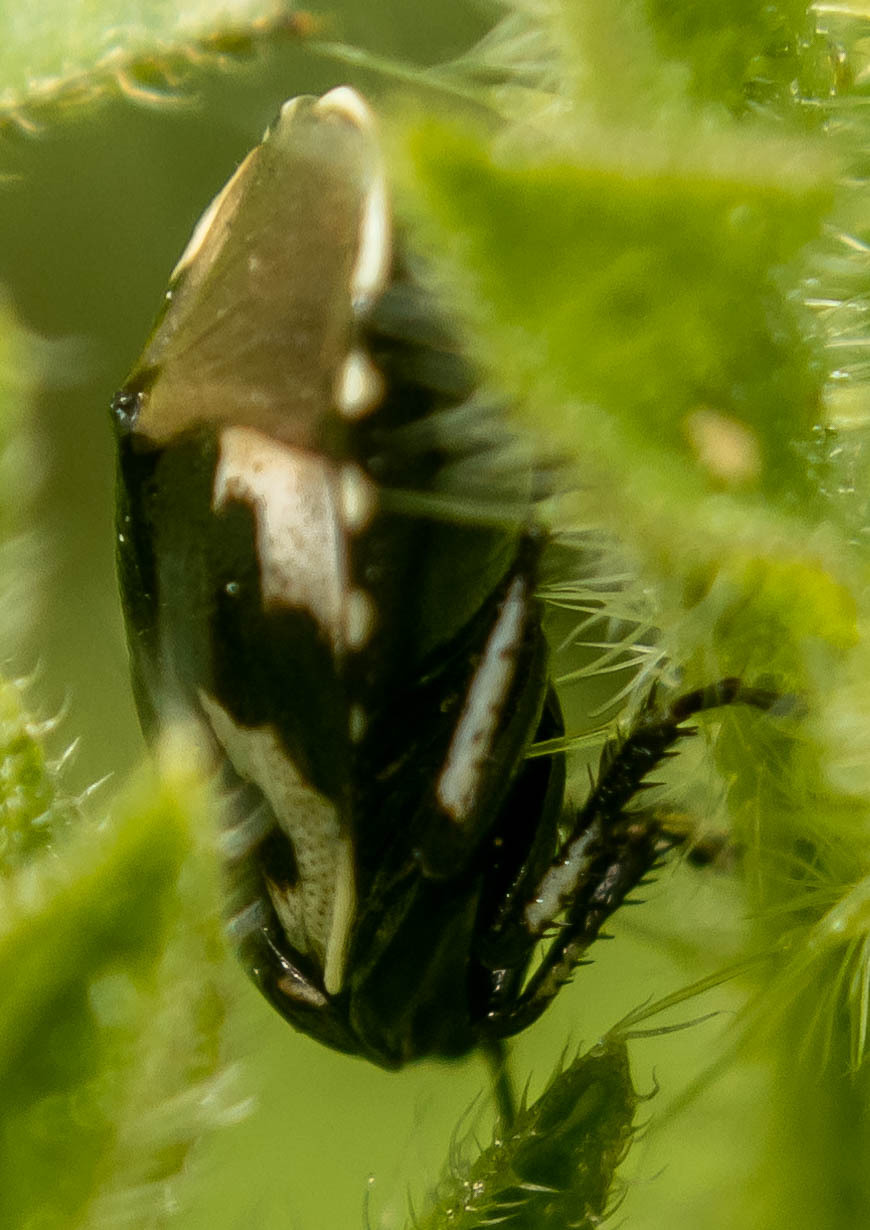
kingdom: Animalia
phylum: Arthropoda
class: Insecta
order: Hemiptera
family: Cydnidae
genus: Tritomegas
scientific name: Tritomegas bicolor
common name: Pied shieldbug
